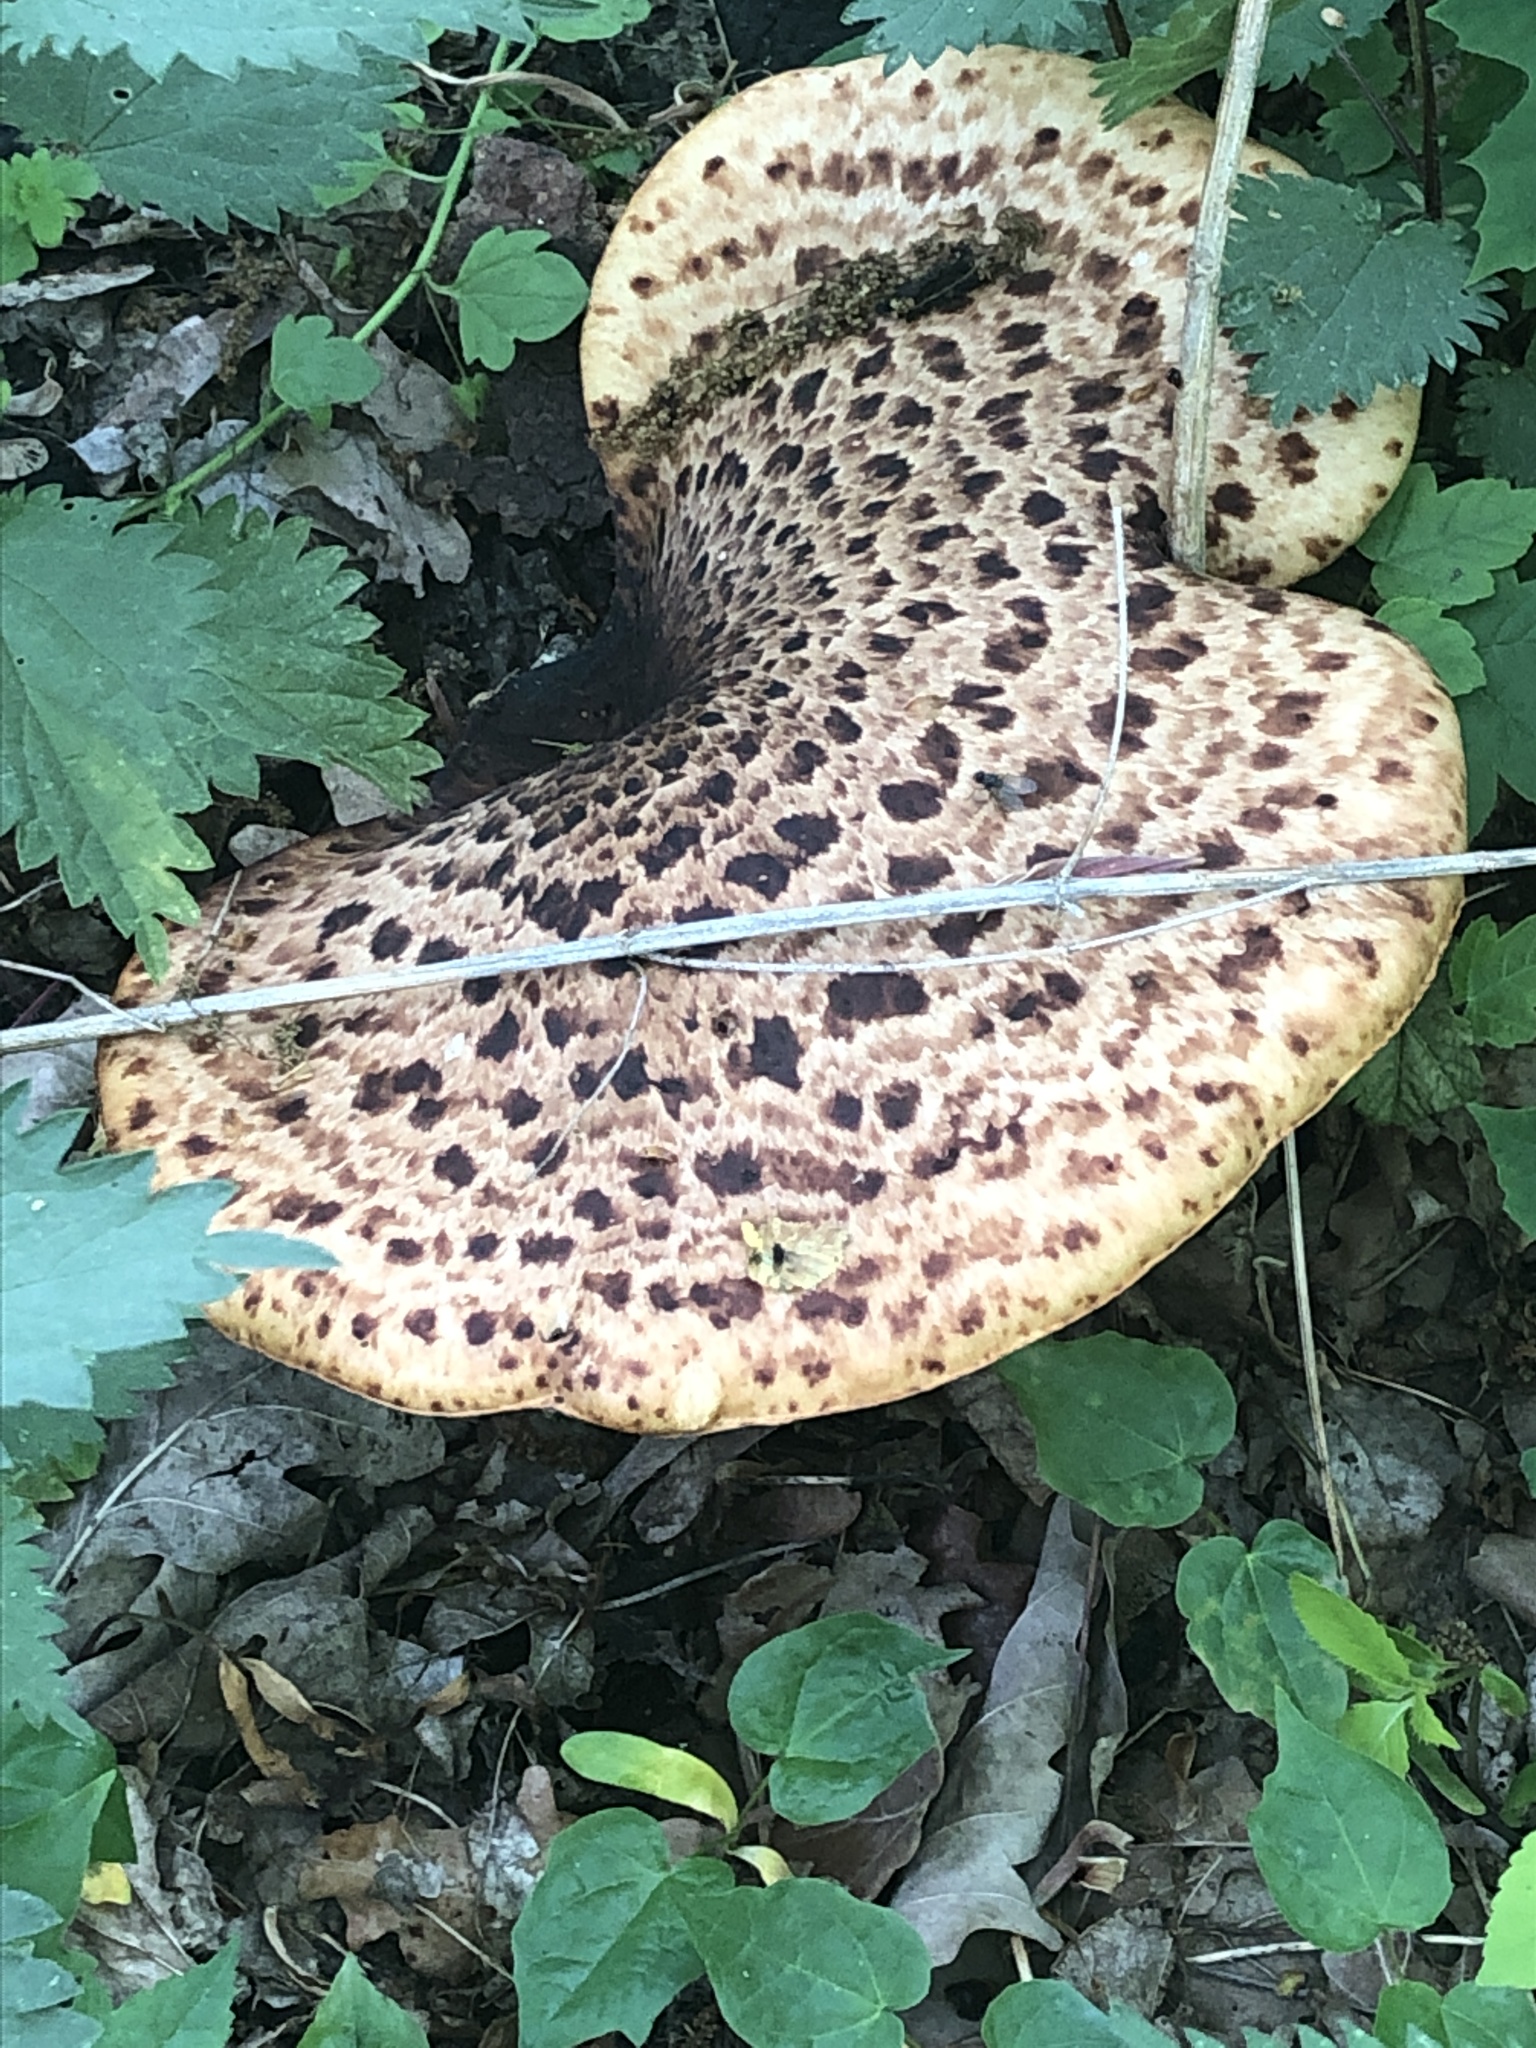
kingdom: Fungi
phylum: Basidiomycota
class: Agaricomycetes
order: Polyporales
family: Polyporaceae
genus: Cerioporus
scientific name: Cerioporus squamosus
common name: Dryad's saddle
